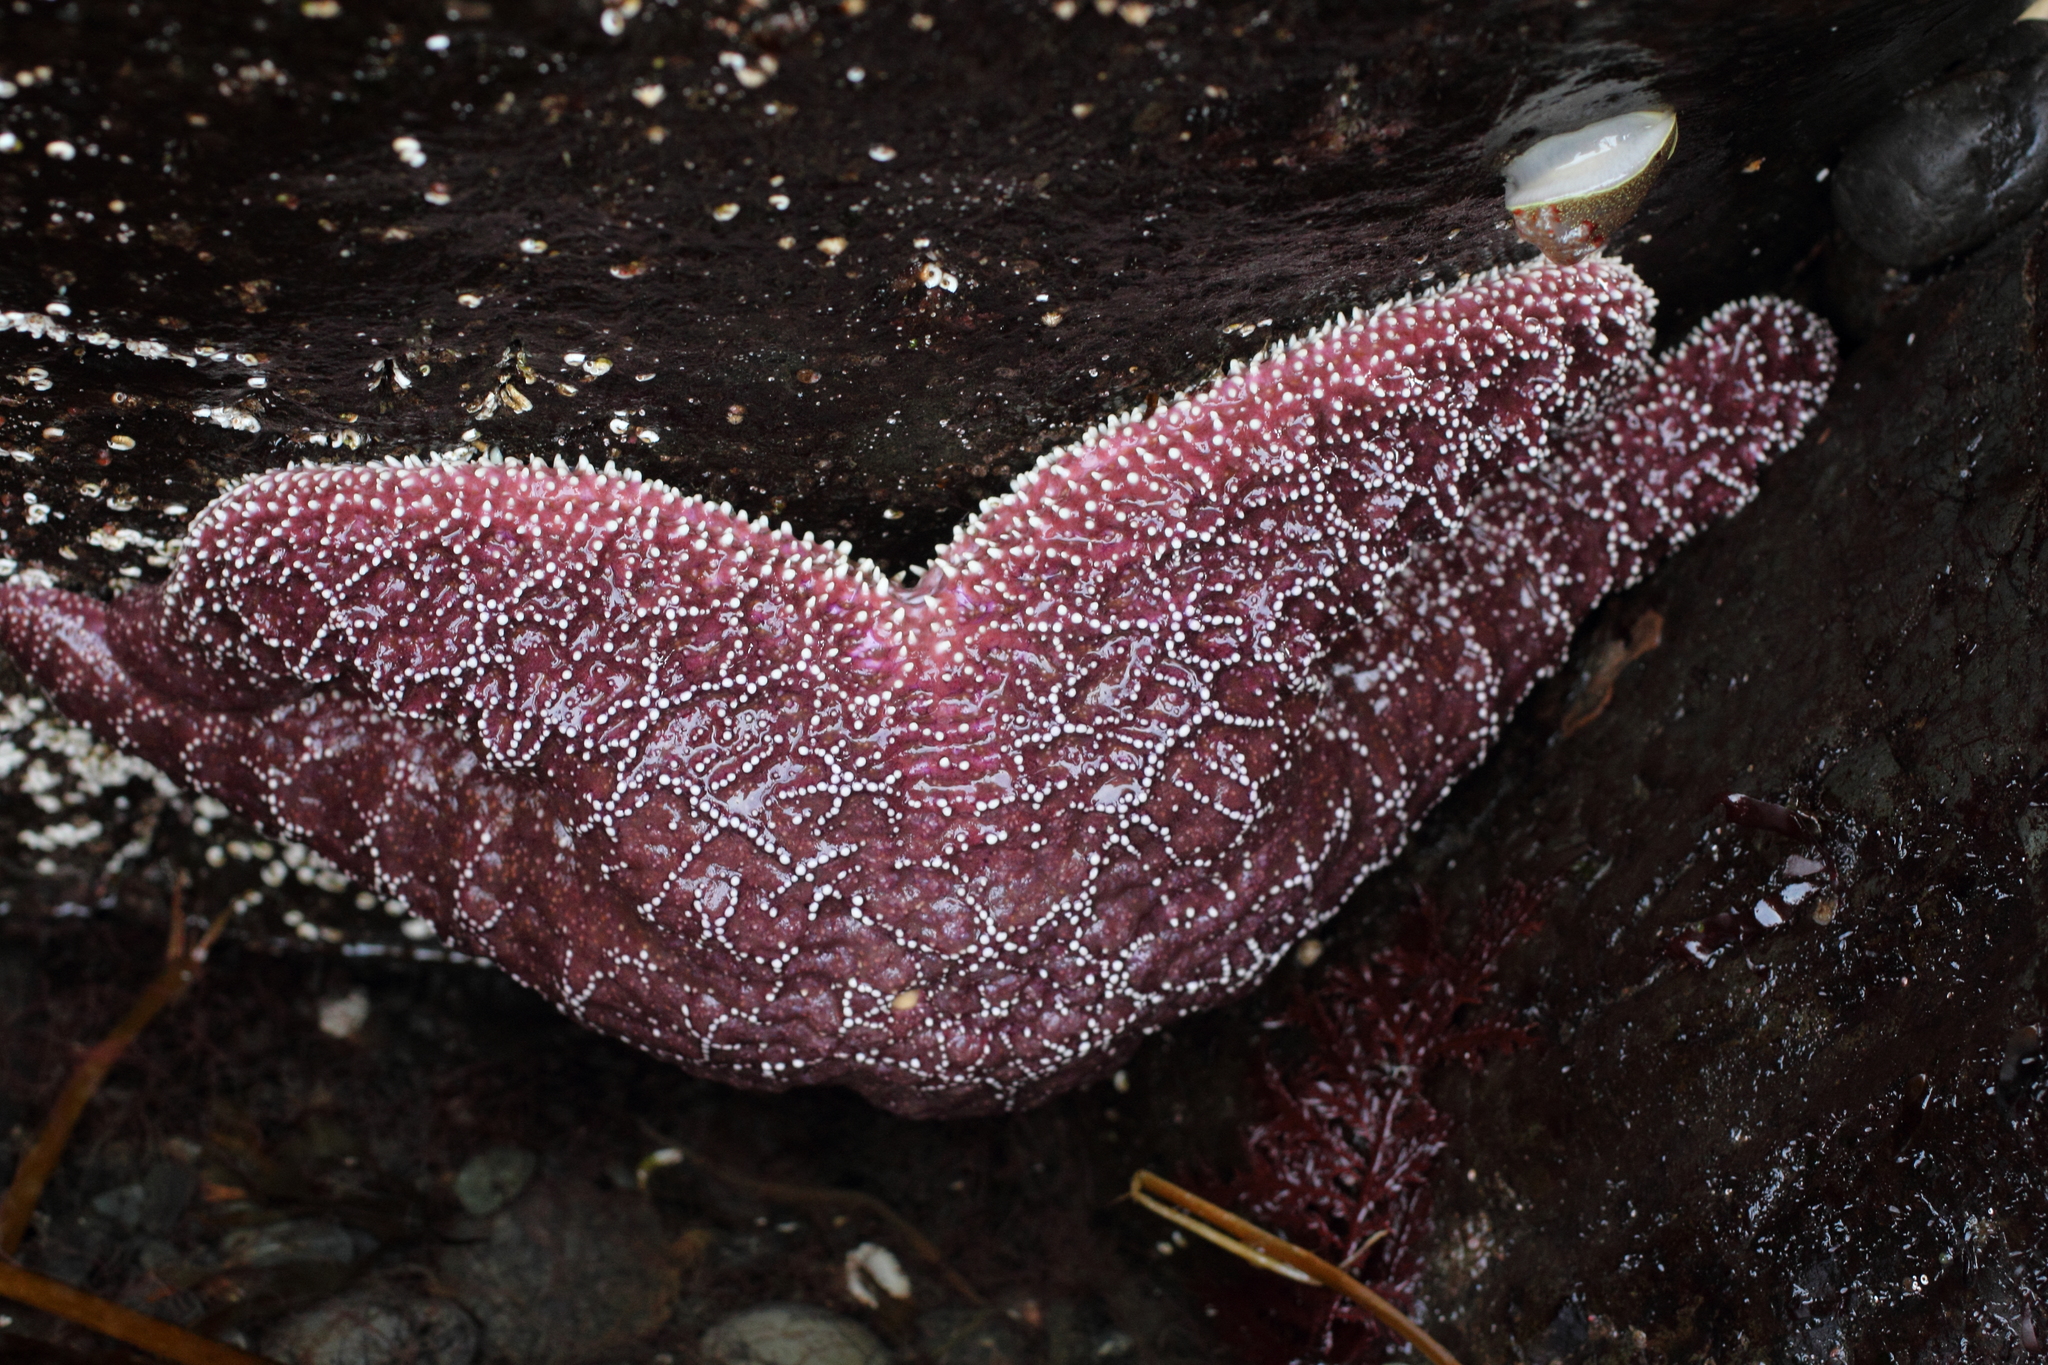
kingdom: Animalia
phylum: Echinodermata
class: Asteroidea
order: Forcipulatida
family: Asteriidae
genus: Pisaster
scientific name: Pisaster ochraceus
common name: Ochre stars
